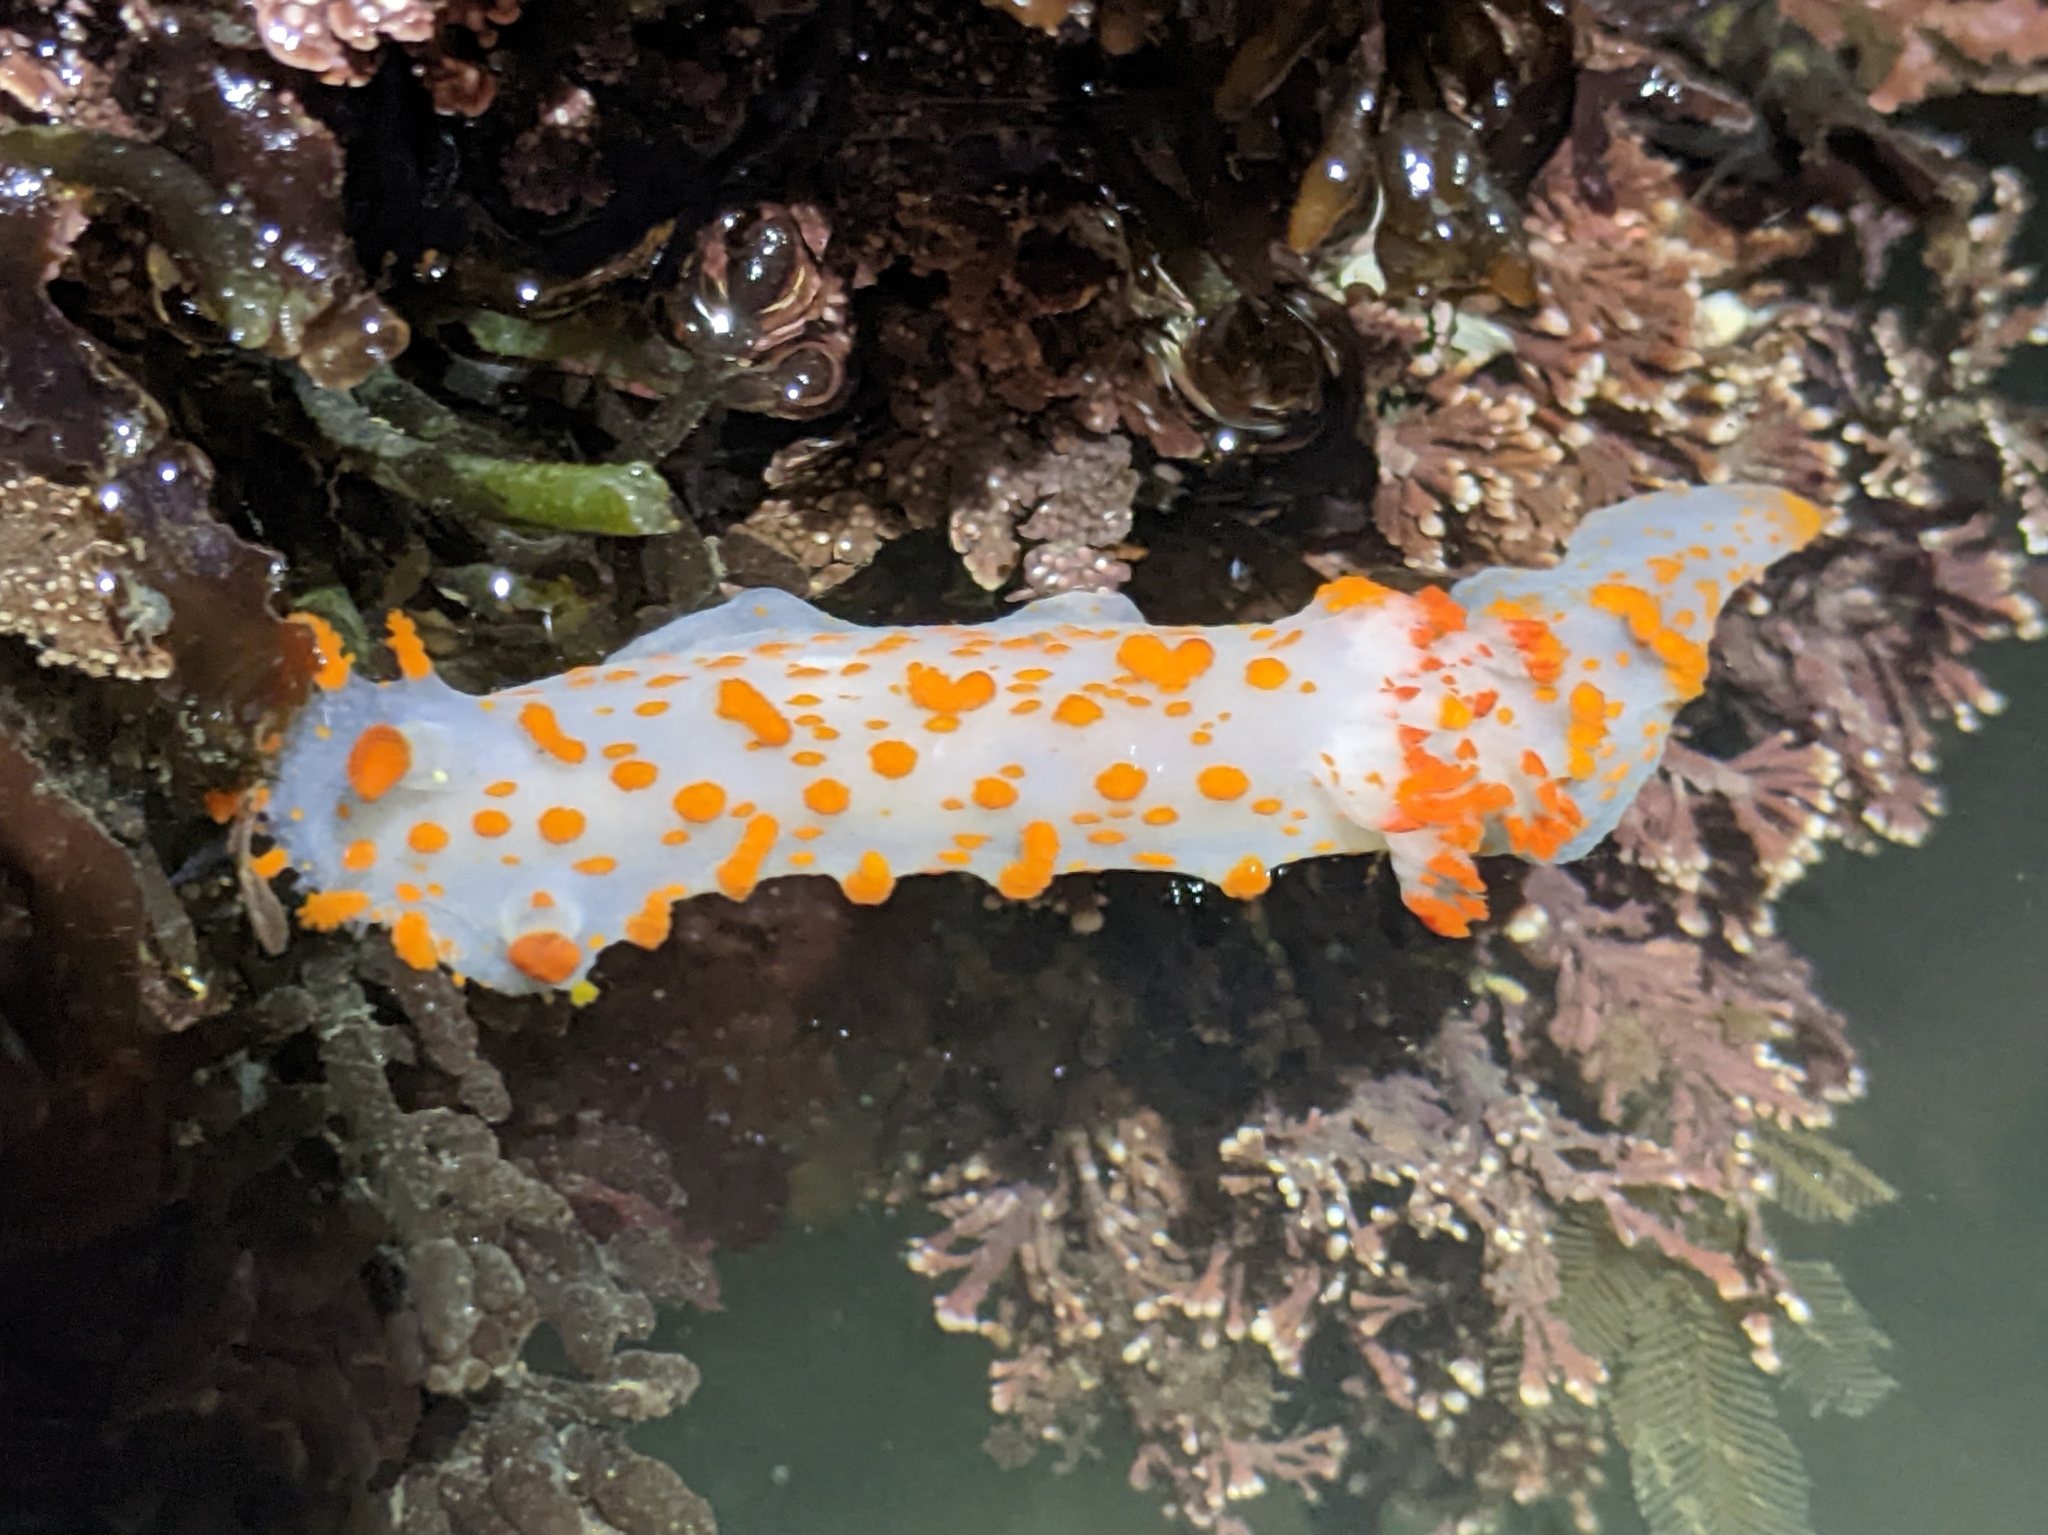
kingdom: Animalia
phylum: Mollusca
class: Gastropoda
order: Nudibranchia
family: Polyceridae
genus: Triopha
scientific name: Triopha catalinae
